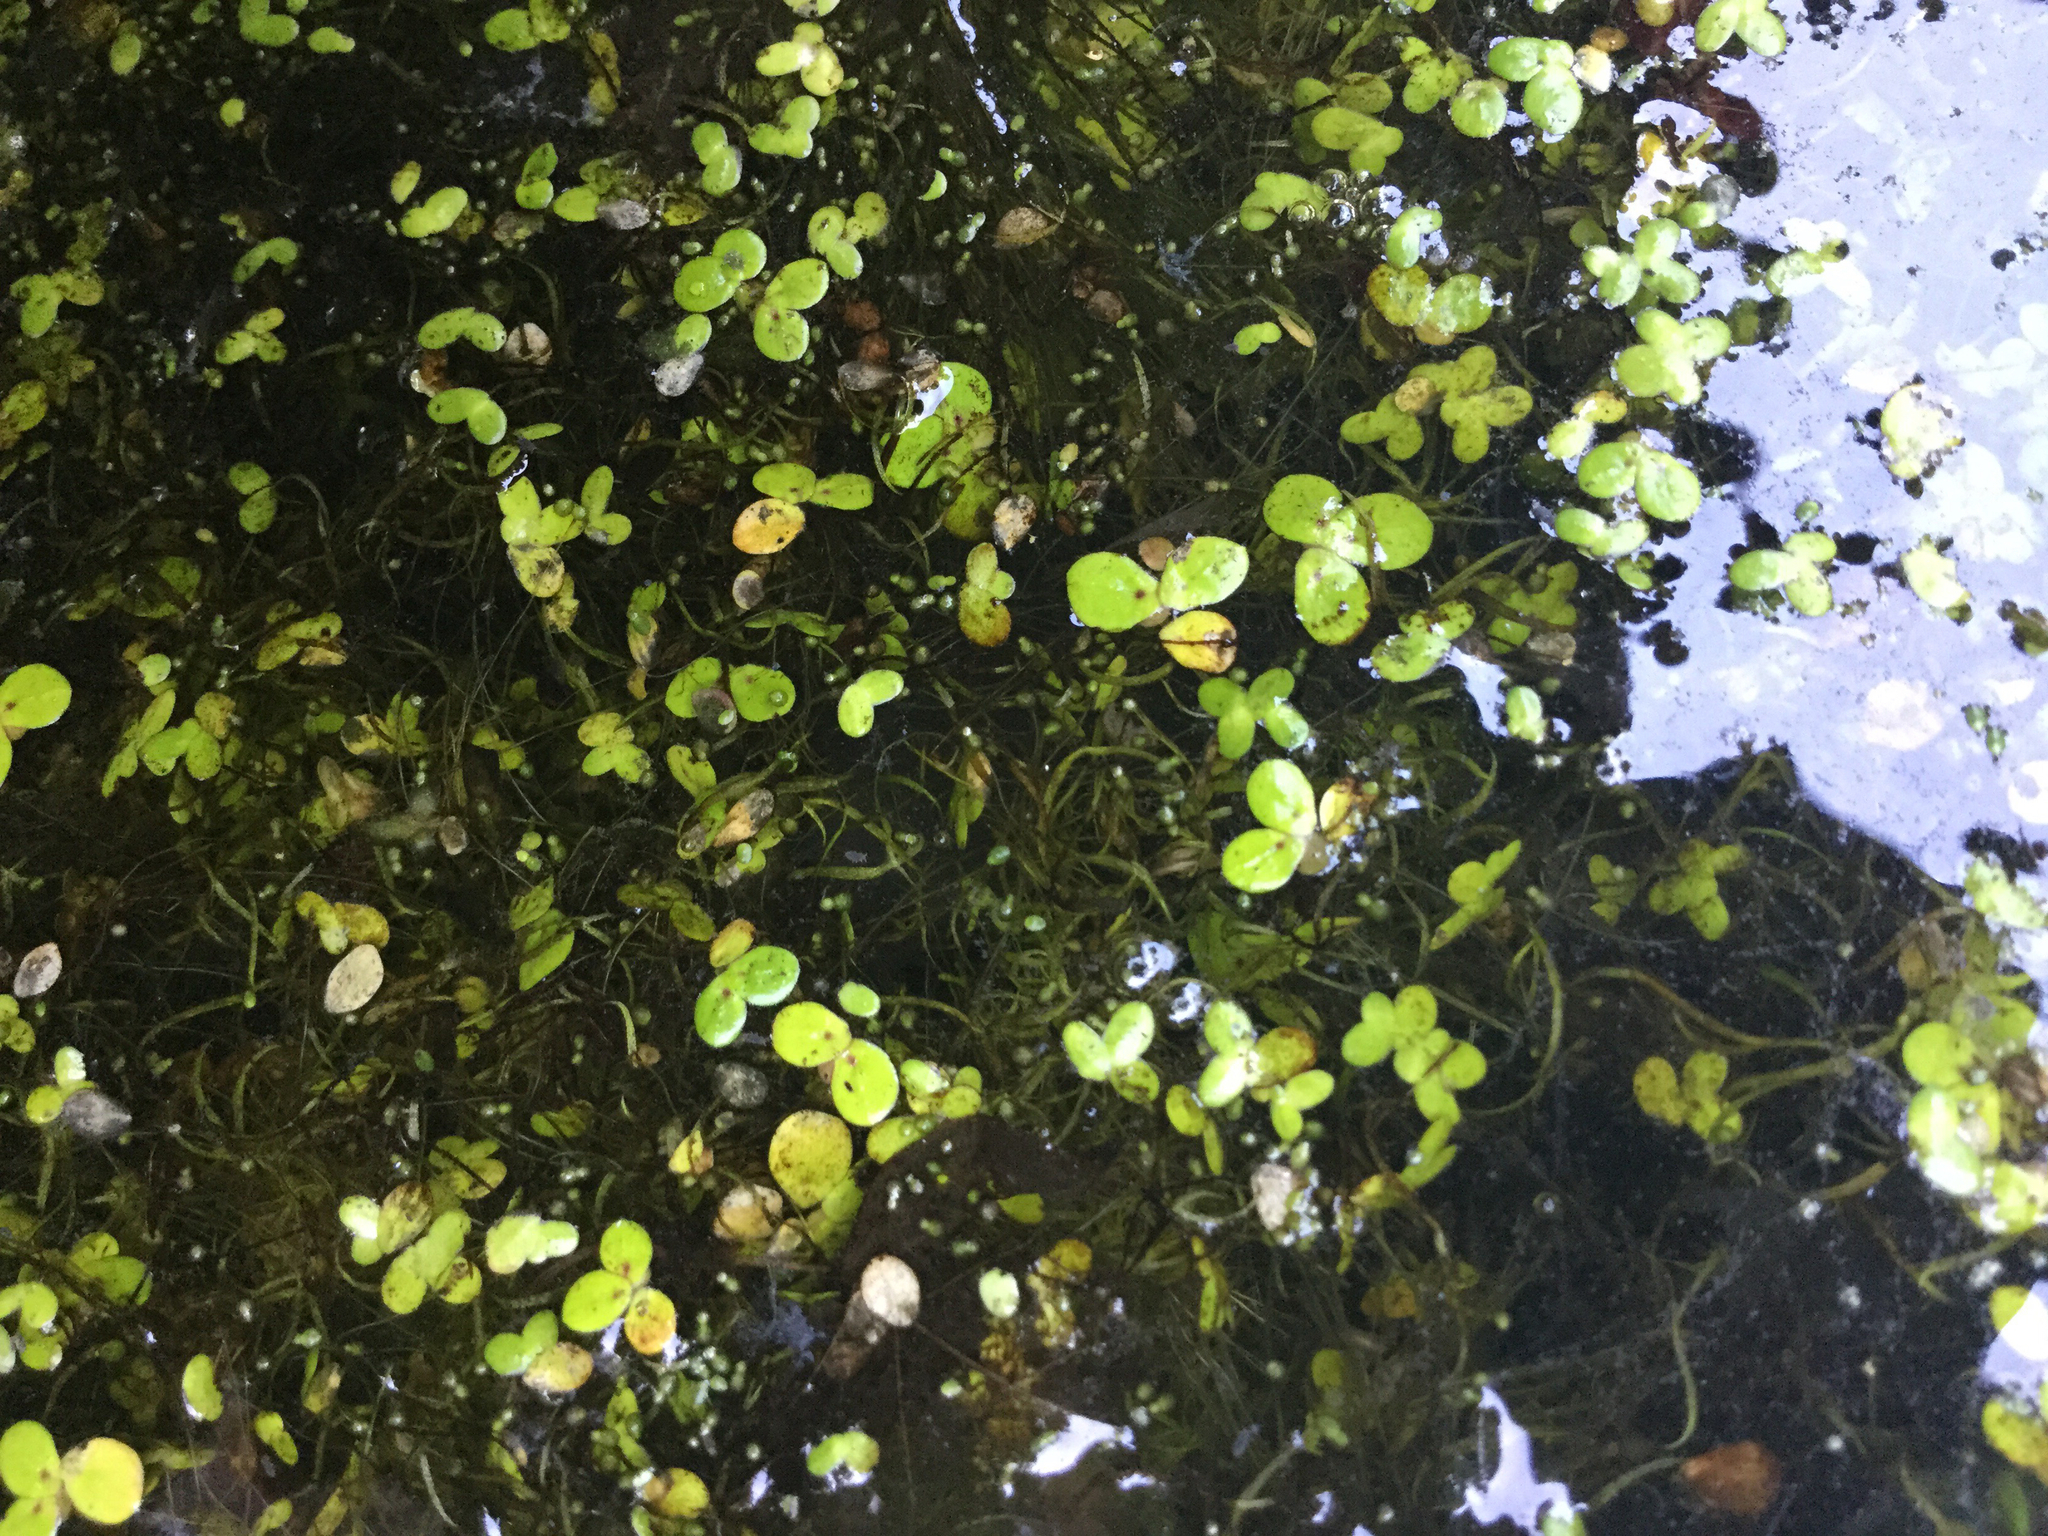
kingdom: Plantae
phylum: Tracheophyta
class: Liliopsida
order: Alismatales
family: Araceae
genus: Wolffiella
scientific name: Wolffiella gladiata
